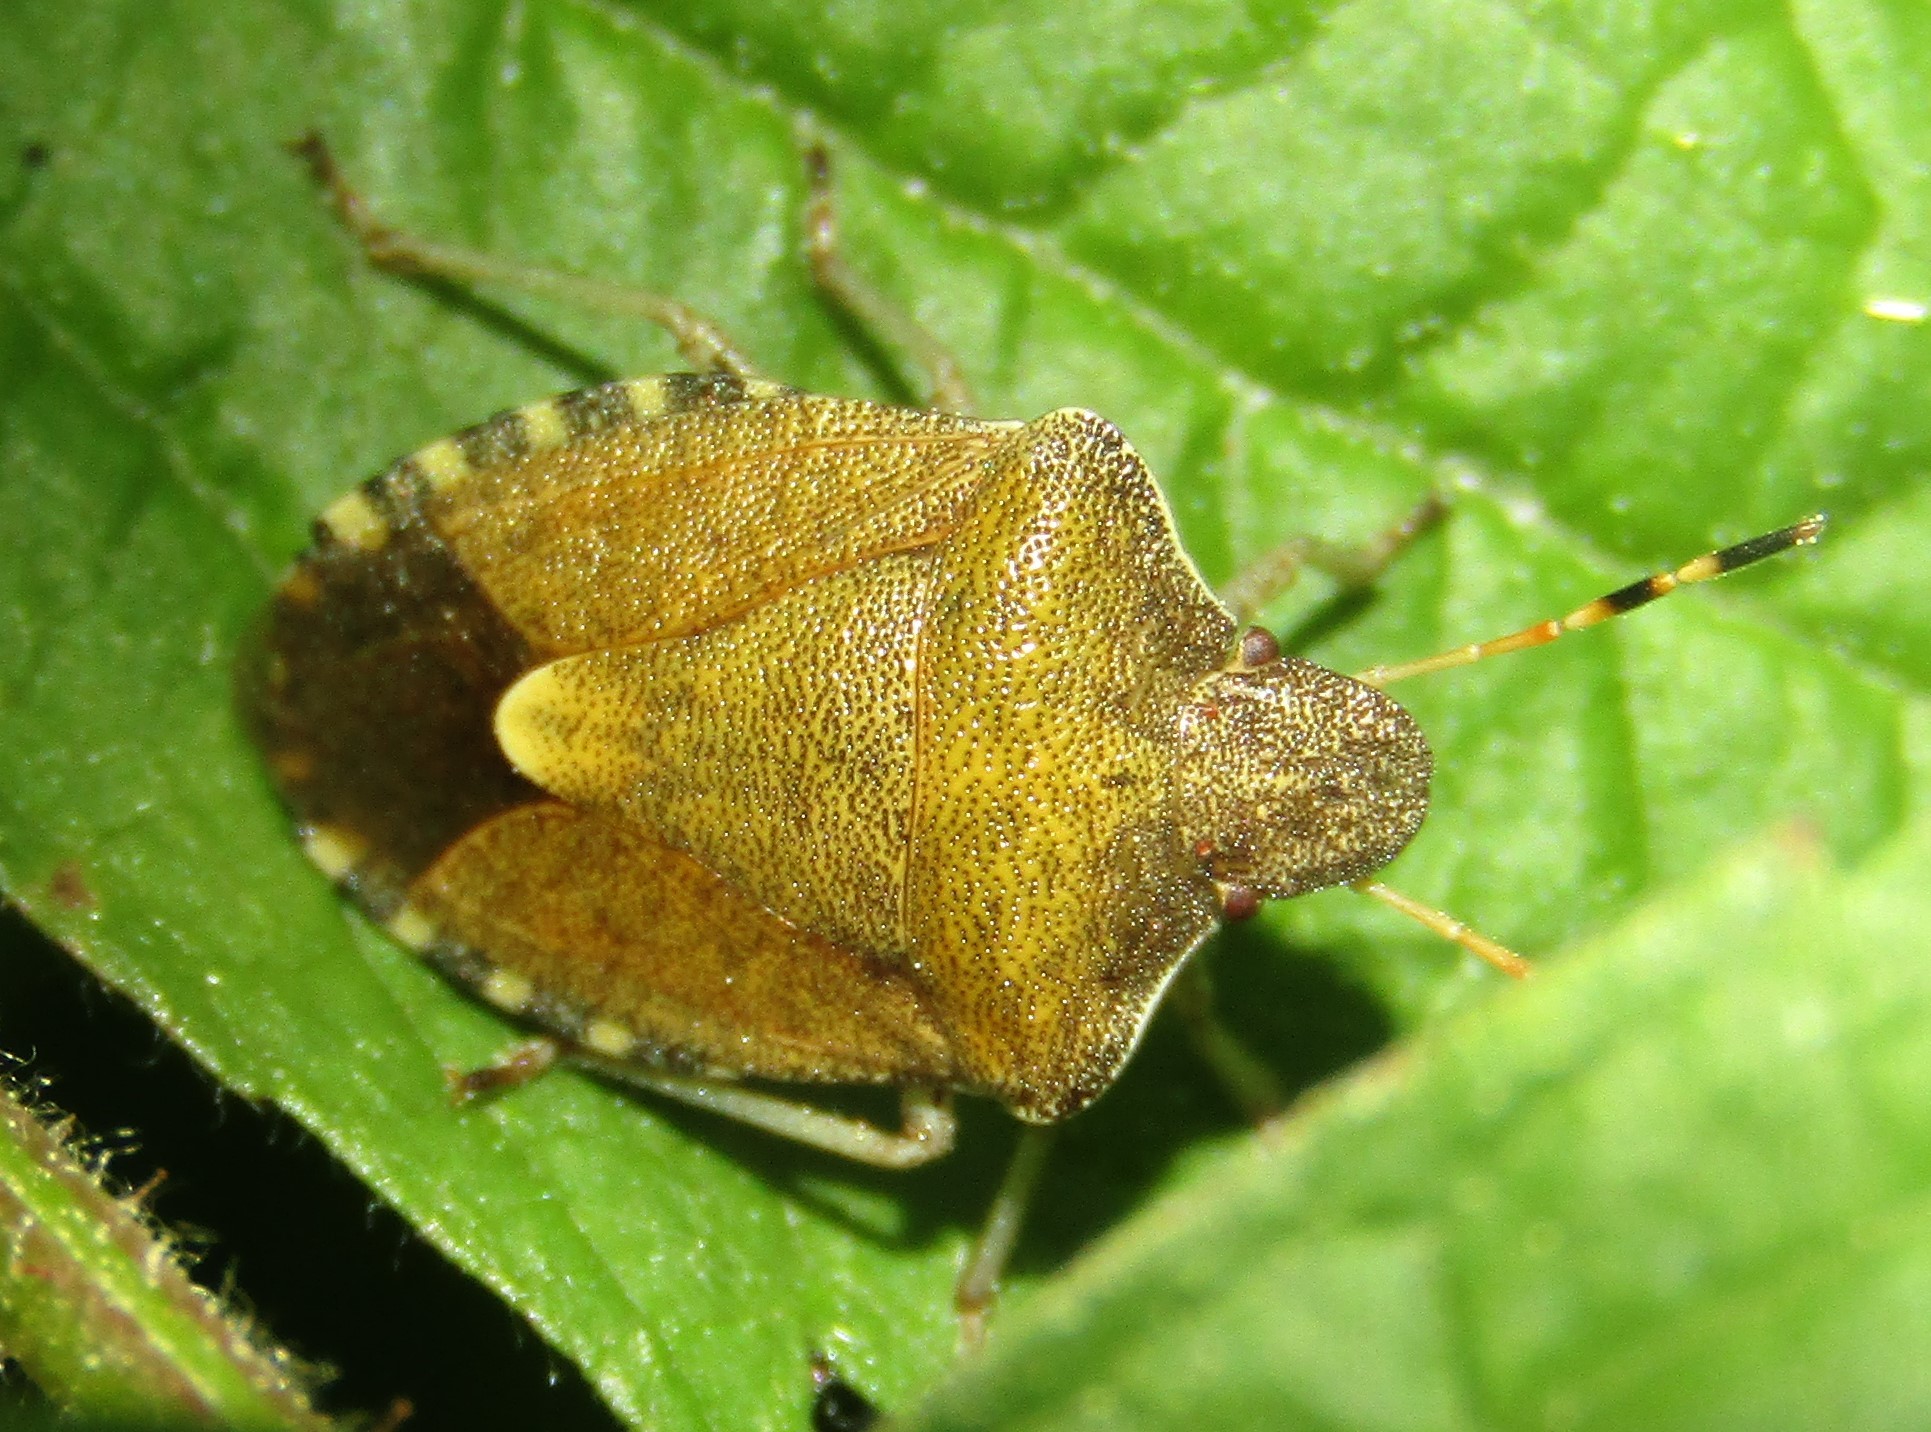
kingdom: Animalia
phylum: Arthropoda
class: Insecta
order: Hemiptera
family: Pentatomidae
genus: Holcostethus
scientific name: Holcostethus strictus
